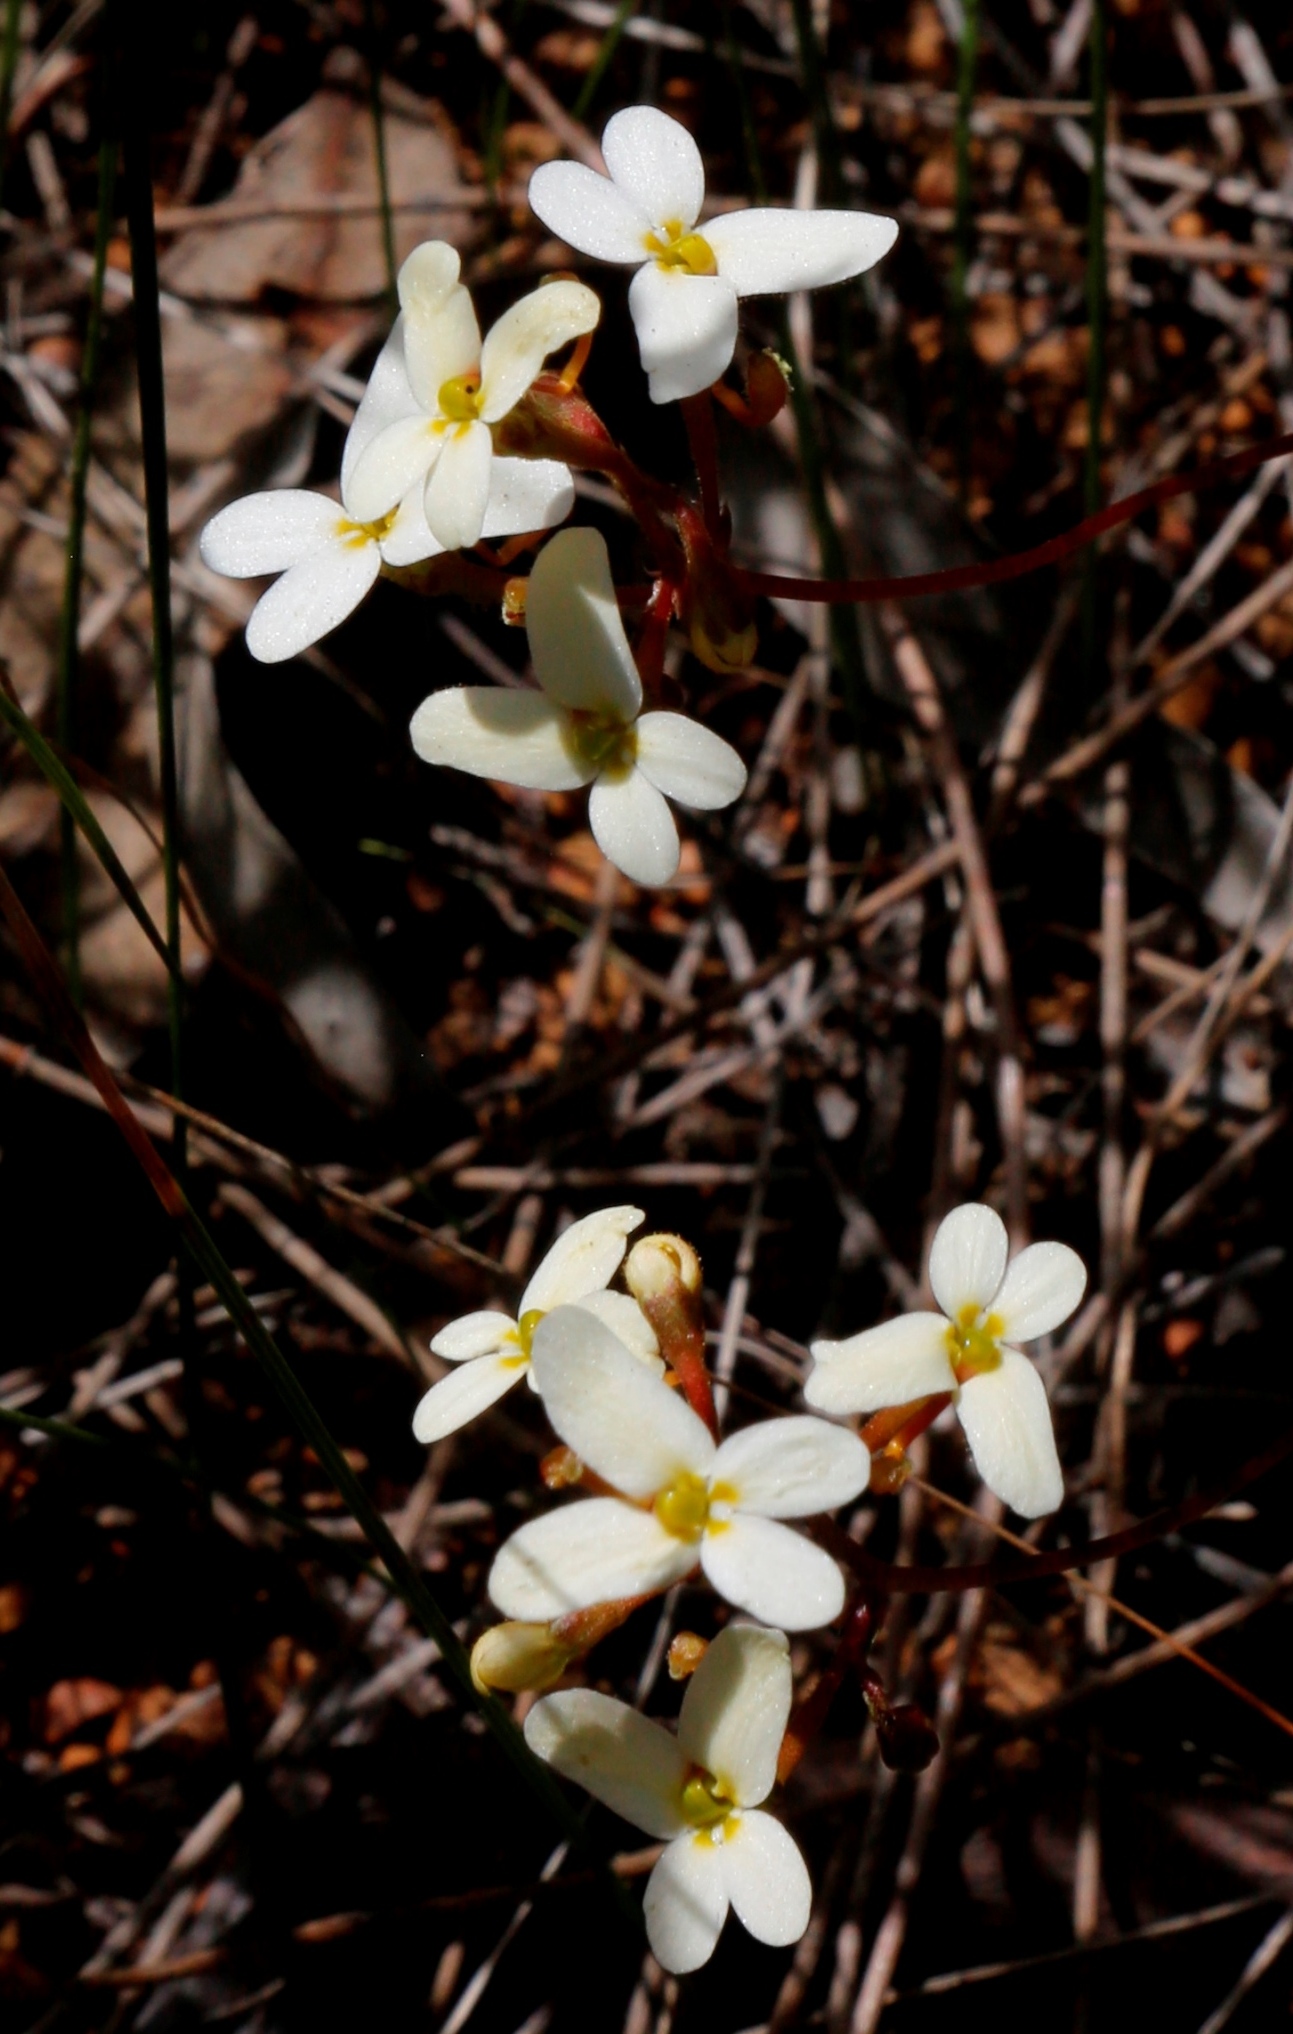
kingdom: Plantae
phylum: Tracheophyta
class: Magnoliopsida
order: Asterales
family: Stylidiaceae
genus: Stylidium
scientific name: Stylidium bindoon
